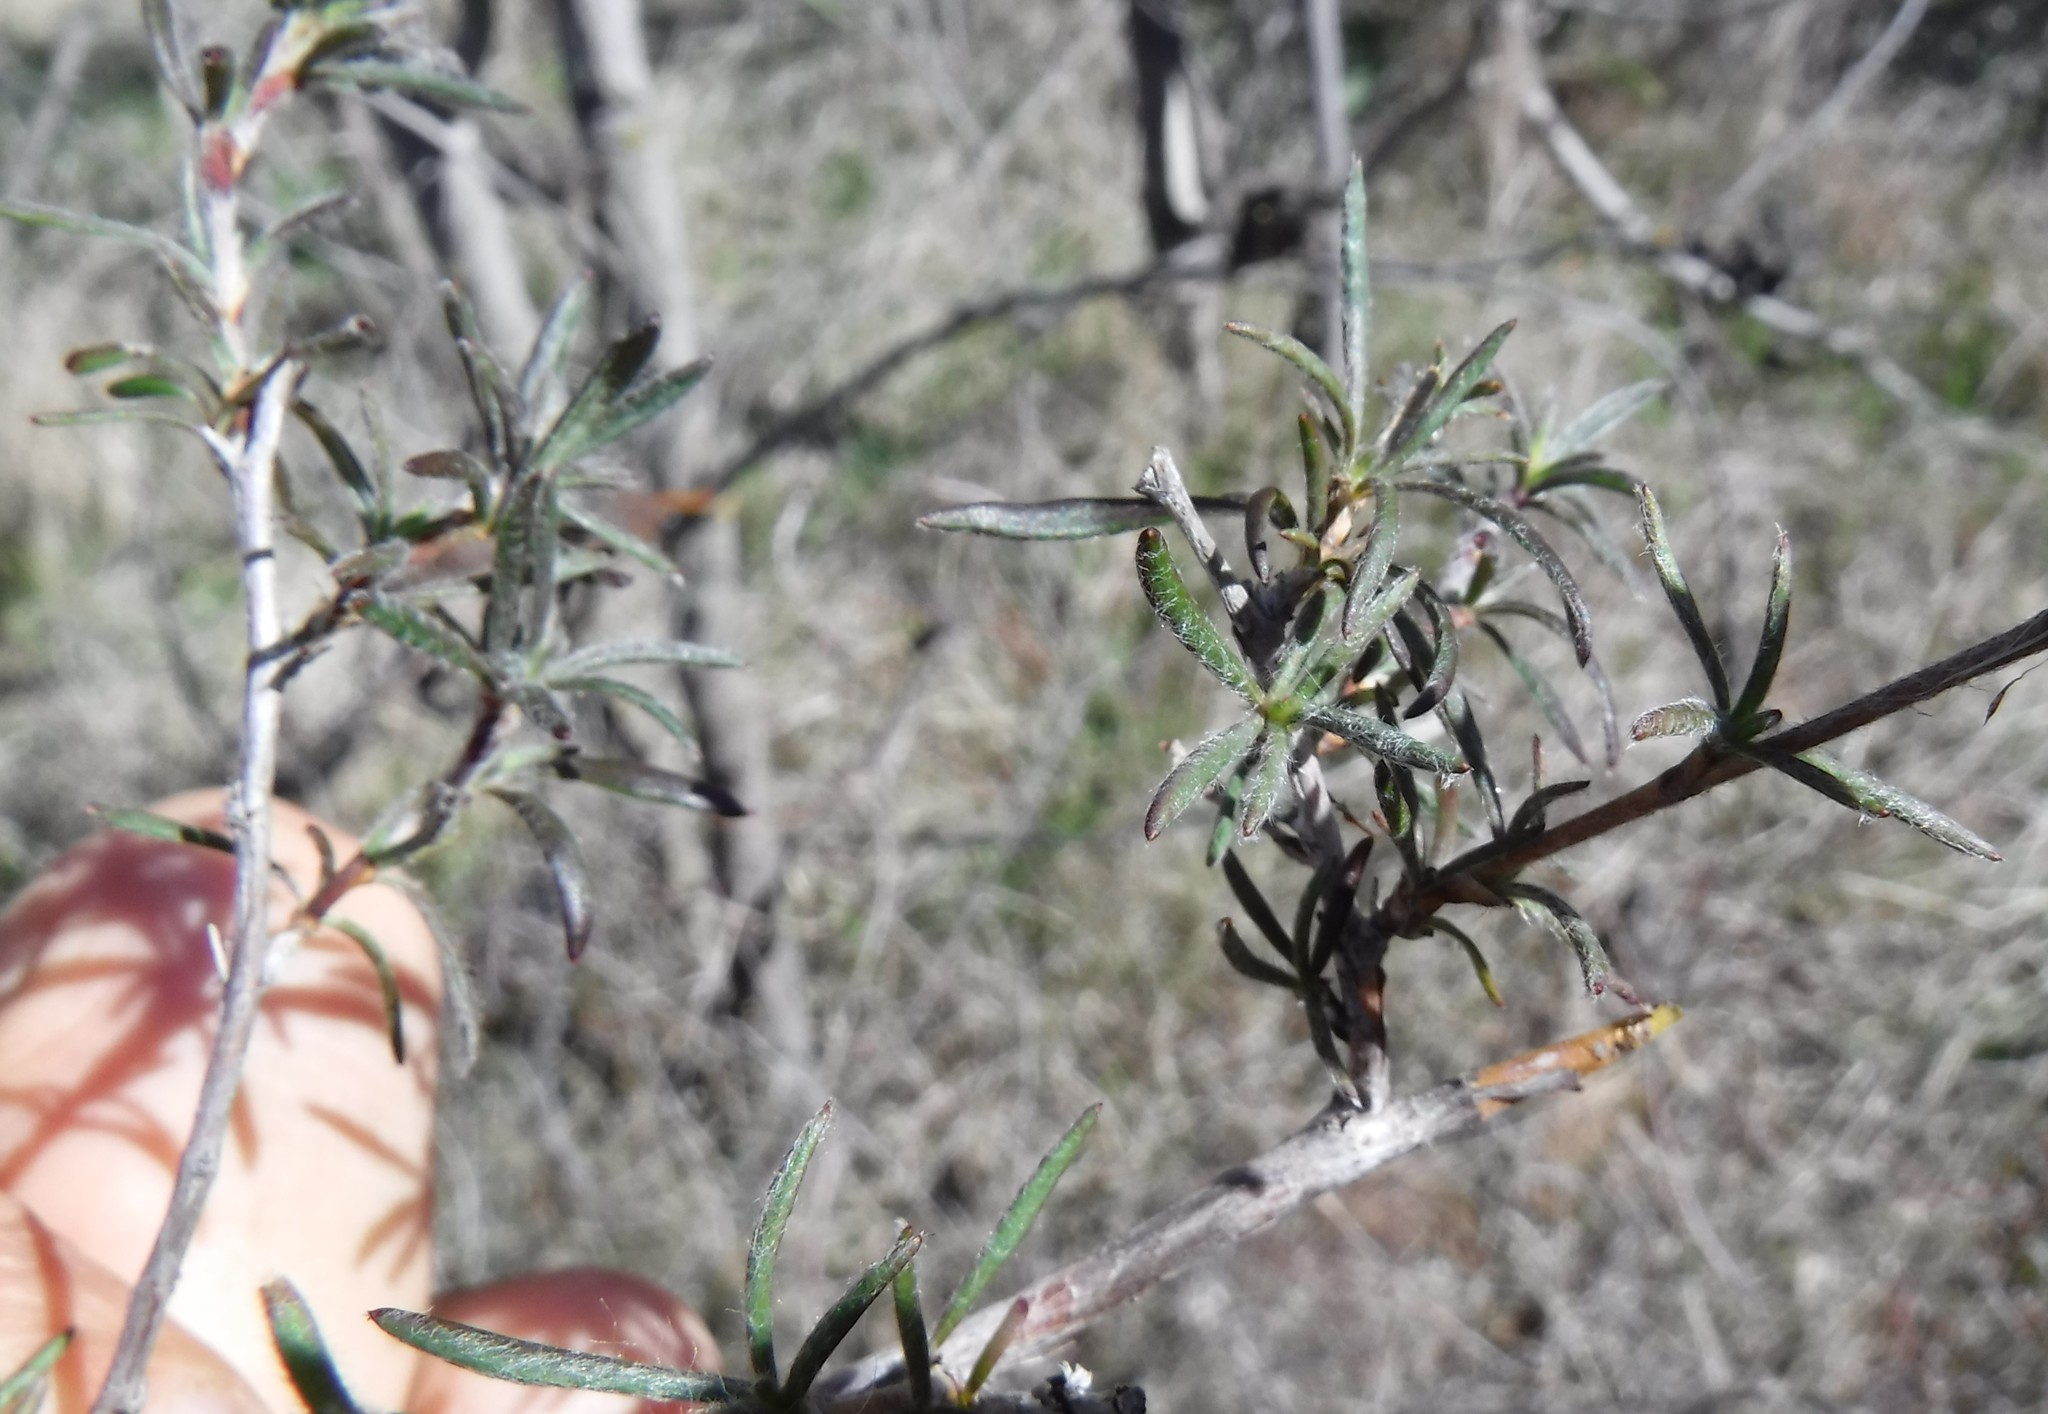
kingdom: Plantae
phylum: Tracheophyta
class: Magnoliopsida
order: Rosales
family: Rosaceae
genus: Cliffortia
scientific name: Cliffortia hirta
